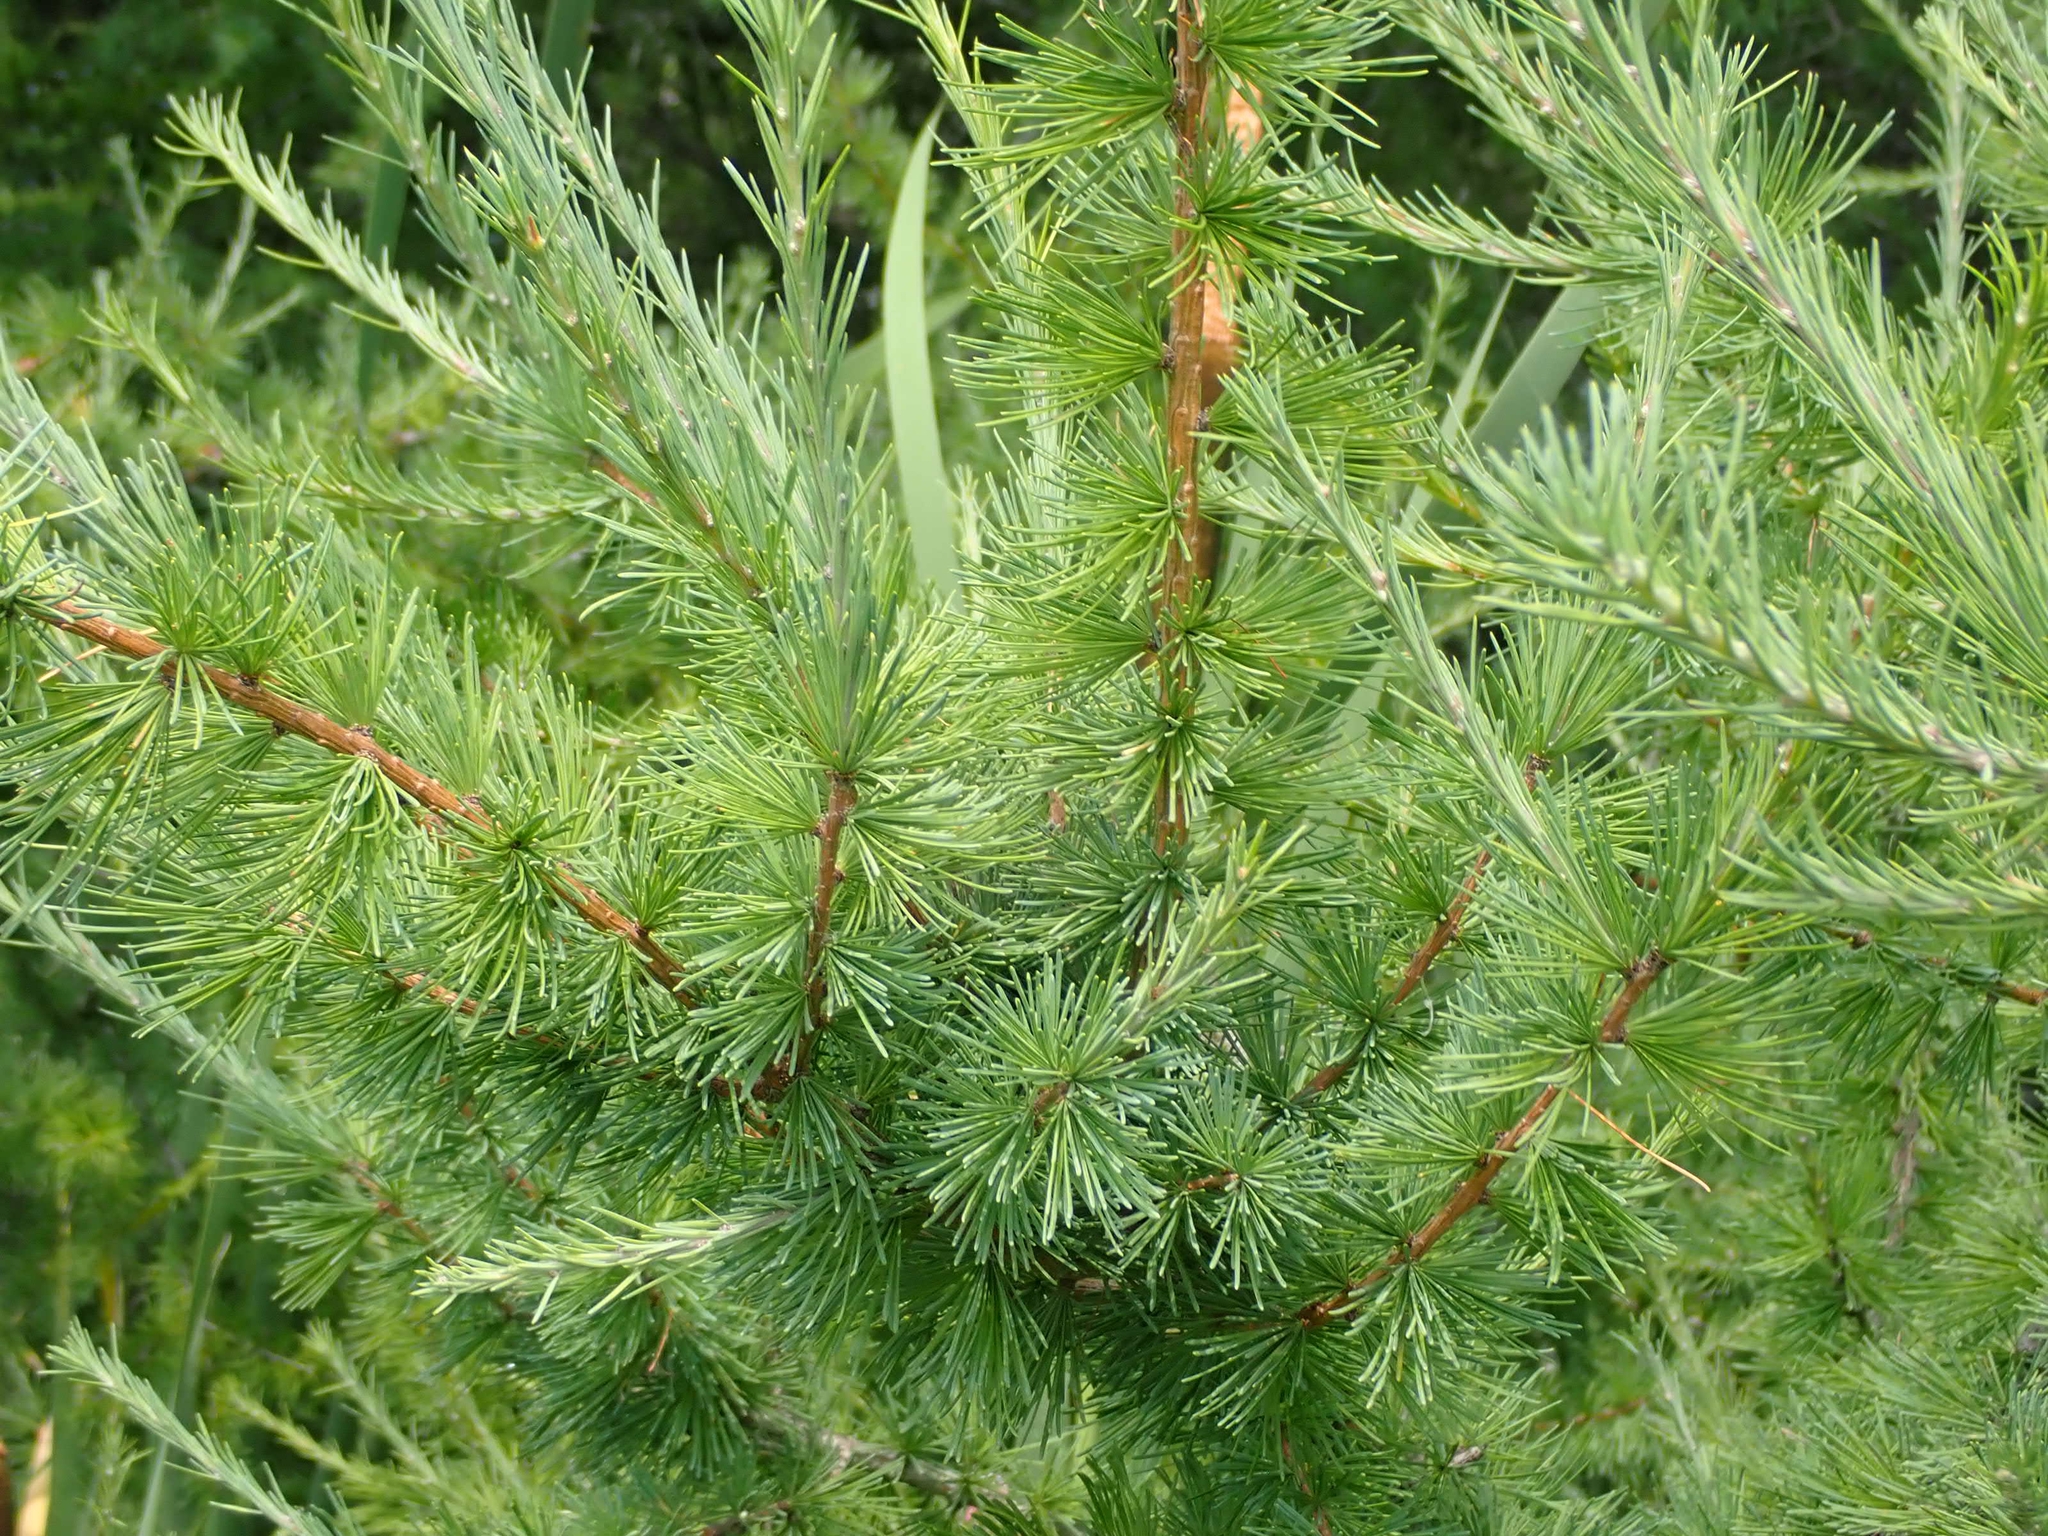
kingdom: Plantae
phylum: Tracheophyta
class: Pinopsida
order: Pinales
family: Pinaceae
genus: Larix
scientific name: Larix laricina
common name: American larch
